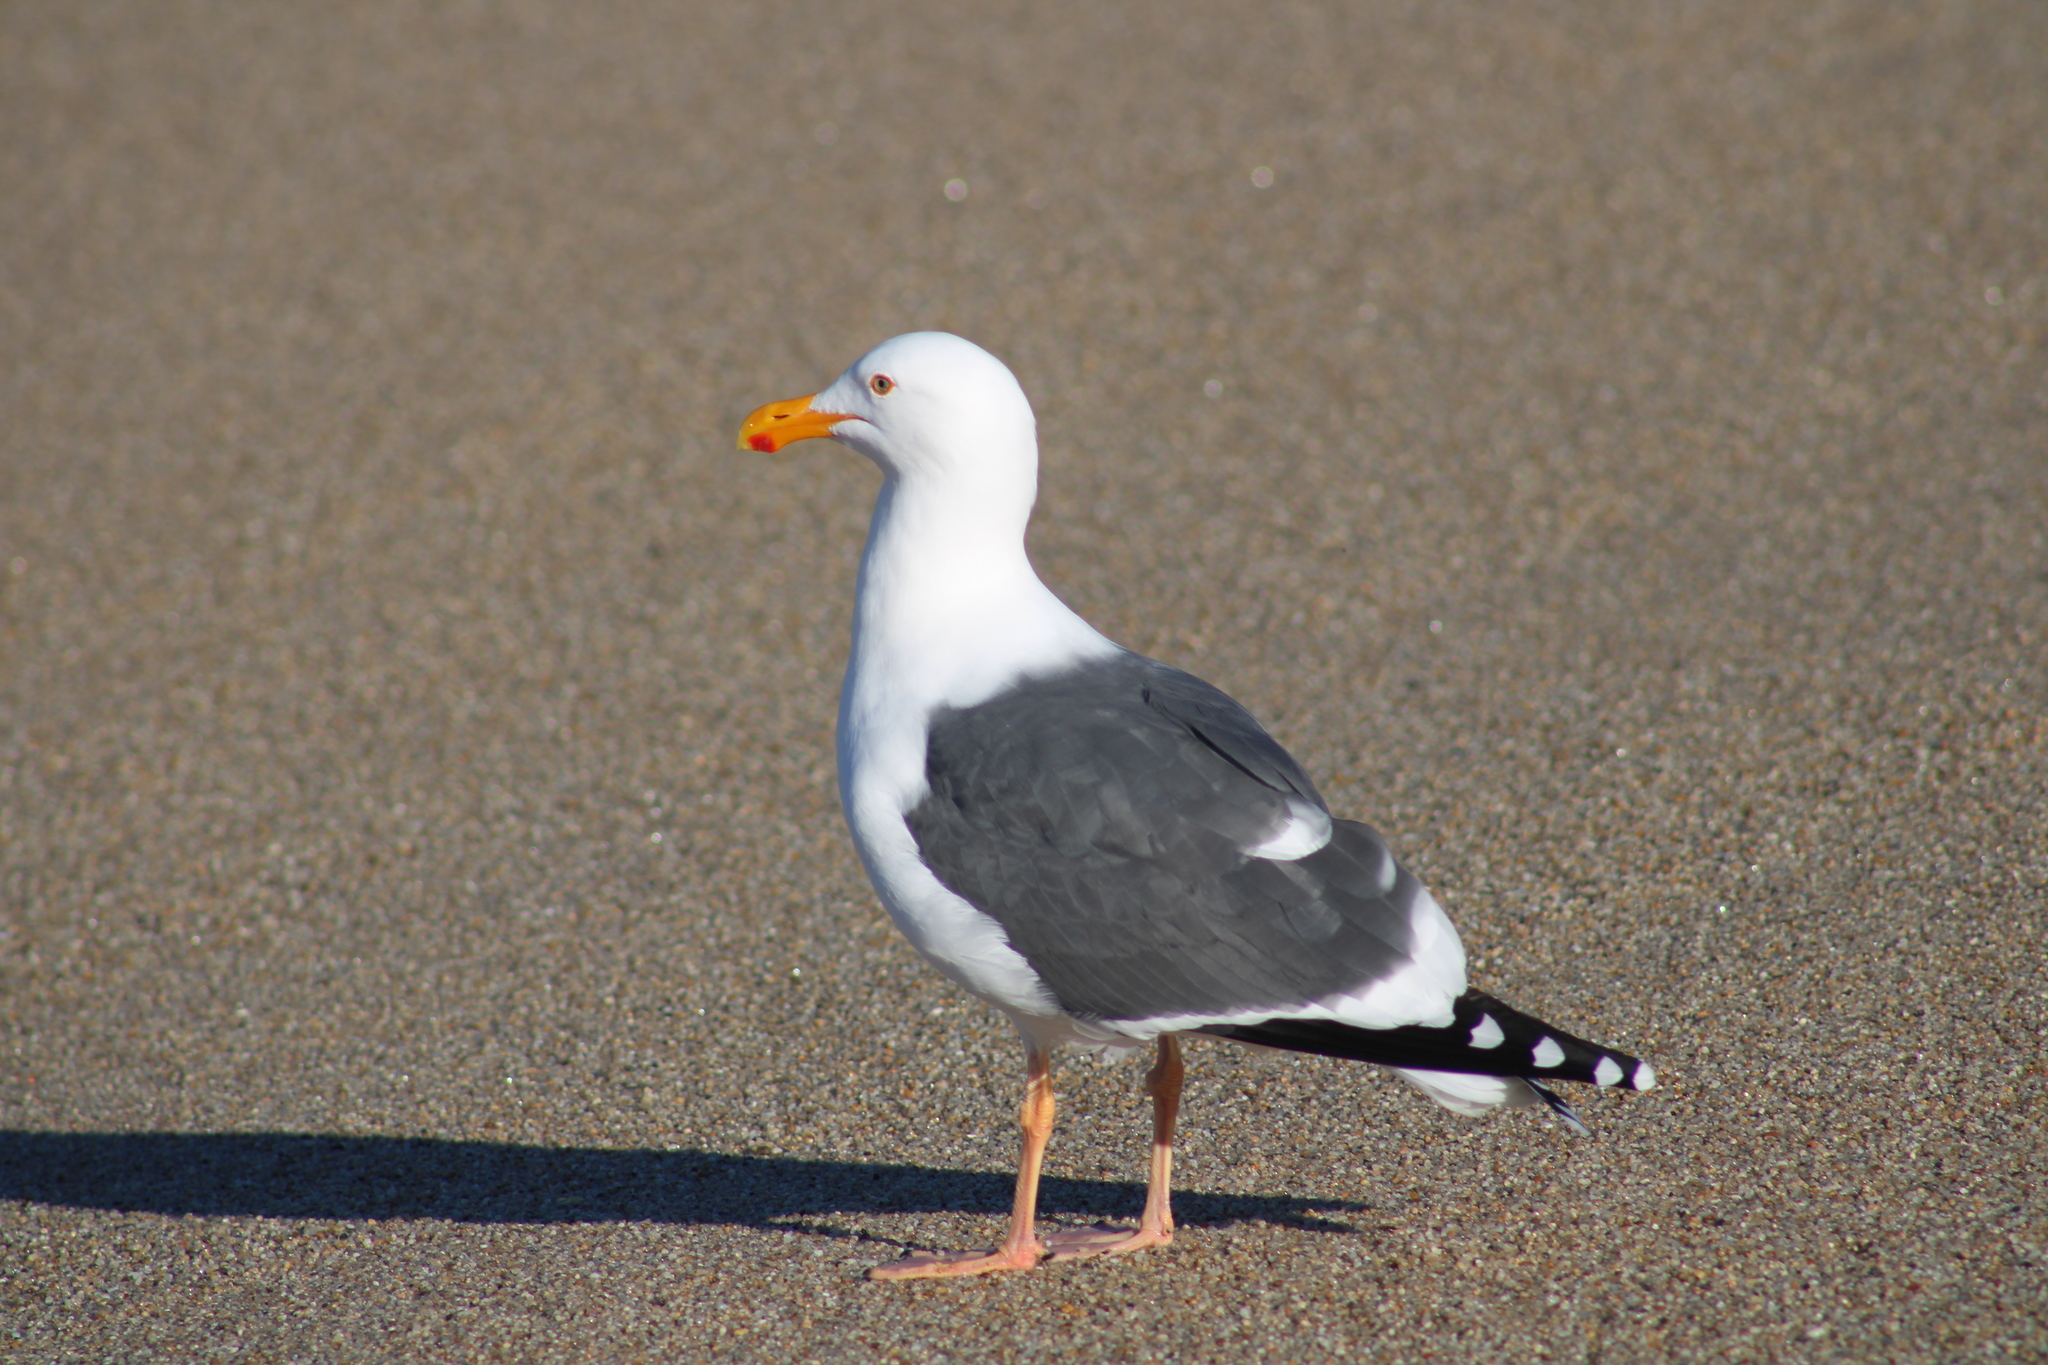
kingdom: Animalia
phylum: Chordata
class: Aves
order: Charadriiformes
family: Laridae
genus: Larus
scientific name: Larus occidentalis
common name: Western gull
